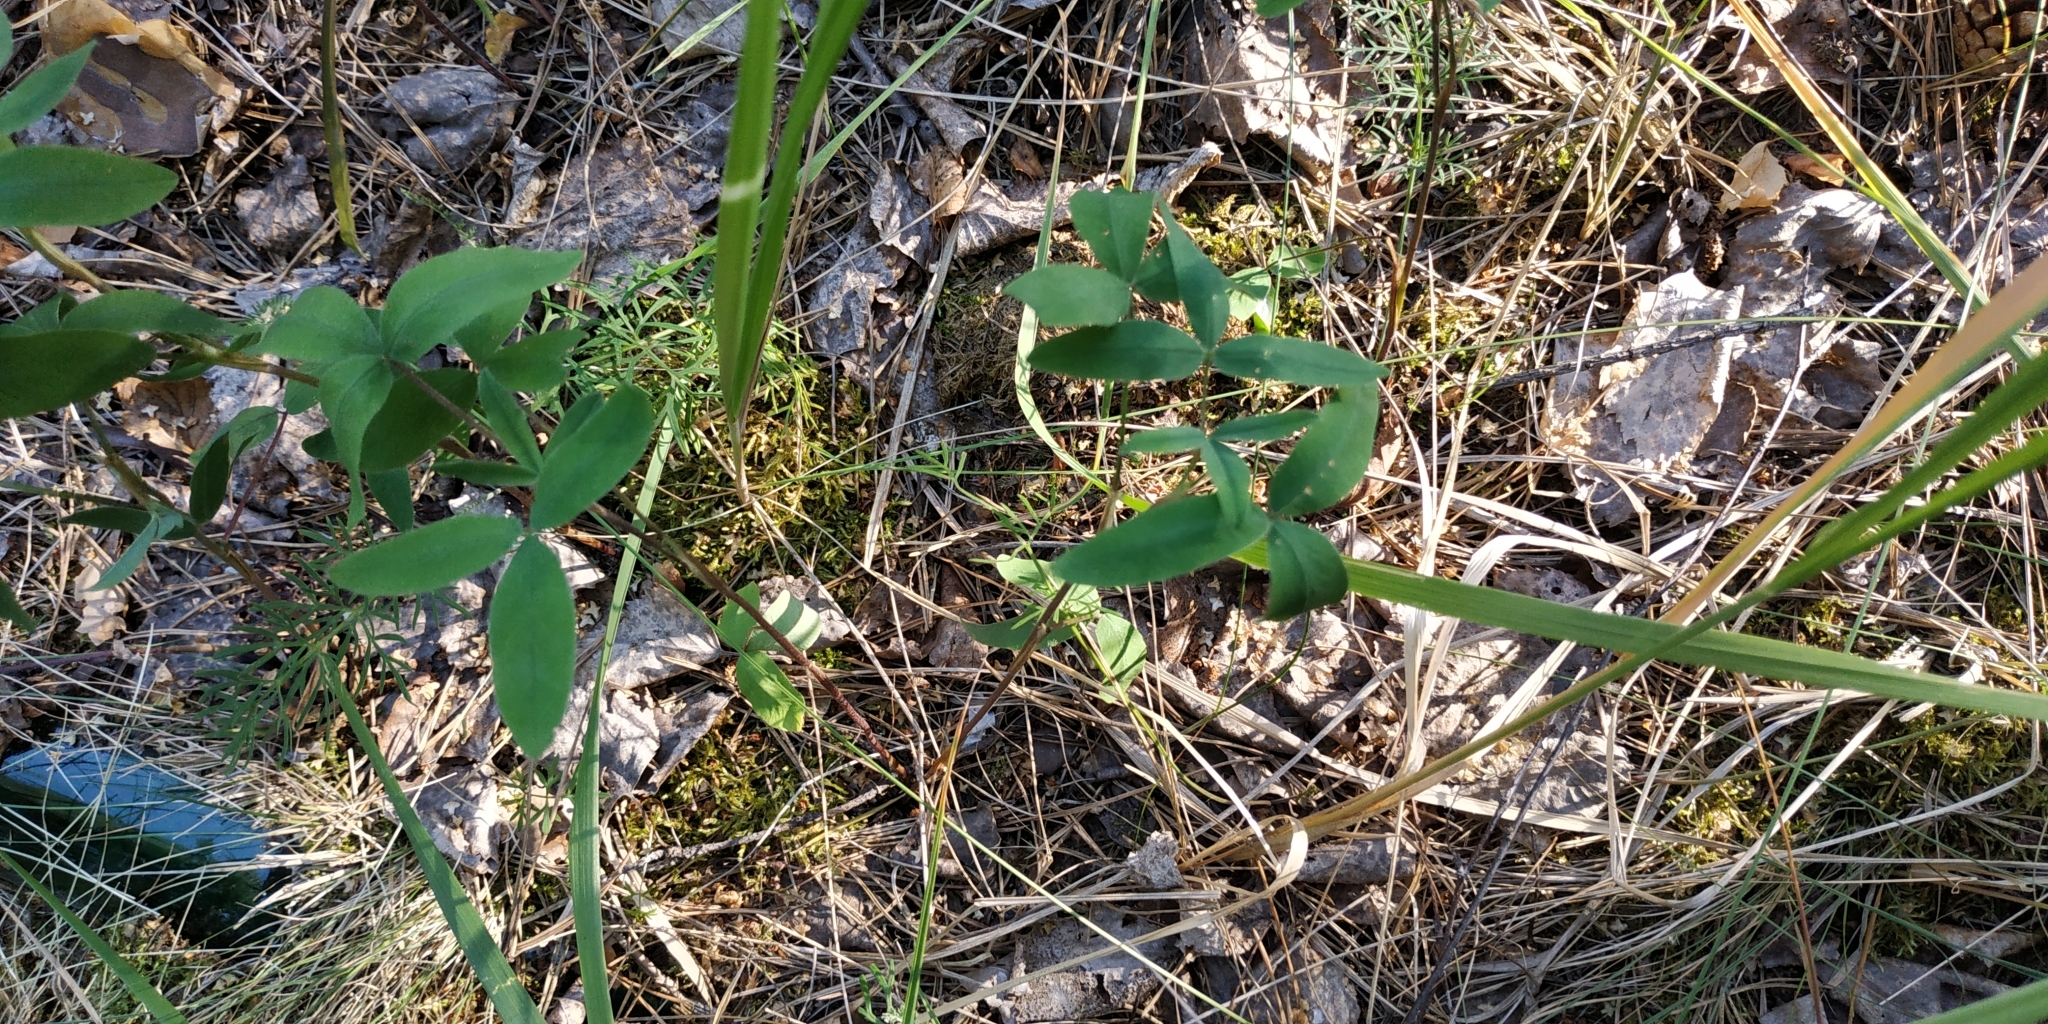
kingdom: Plantae
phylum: Tracheophyta
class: Magnoliopsida
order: Fabales
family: Fabaceae
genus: Trifolium
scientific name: Trifolium medium
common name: Zigzag clover
